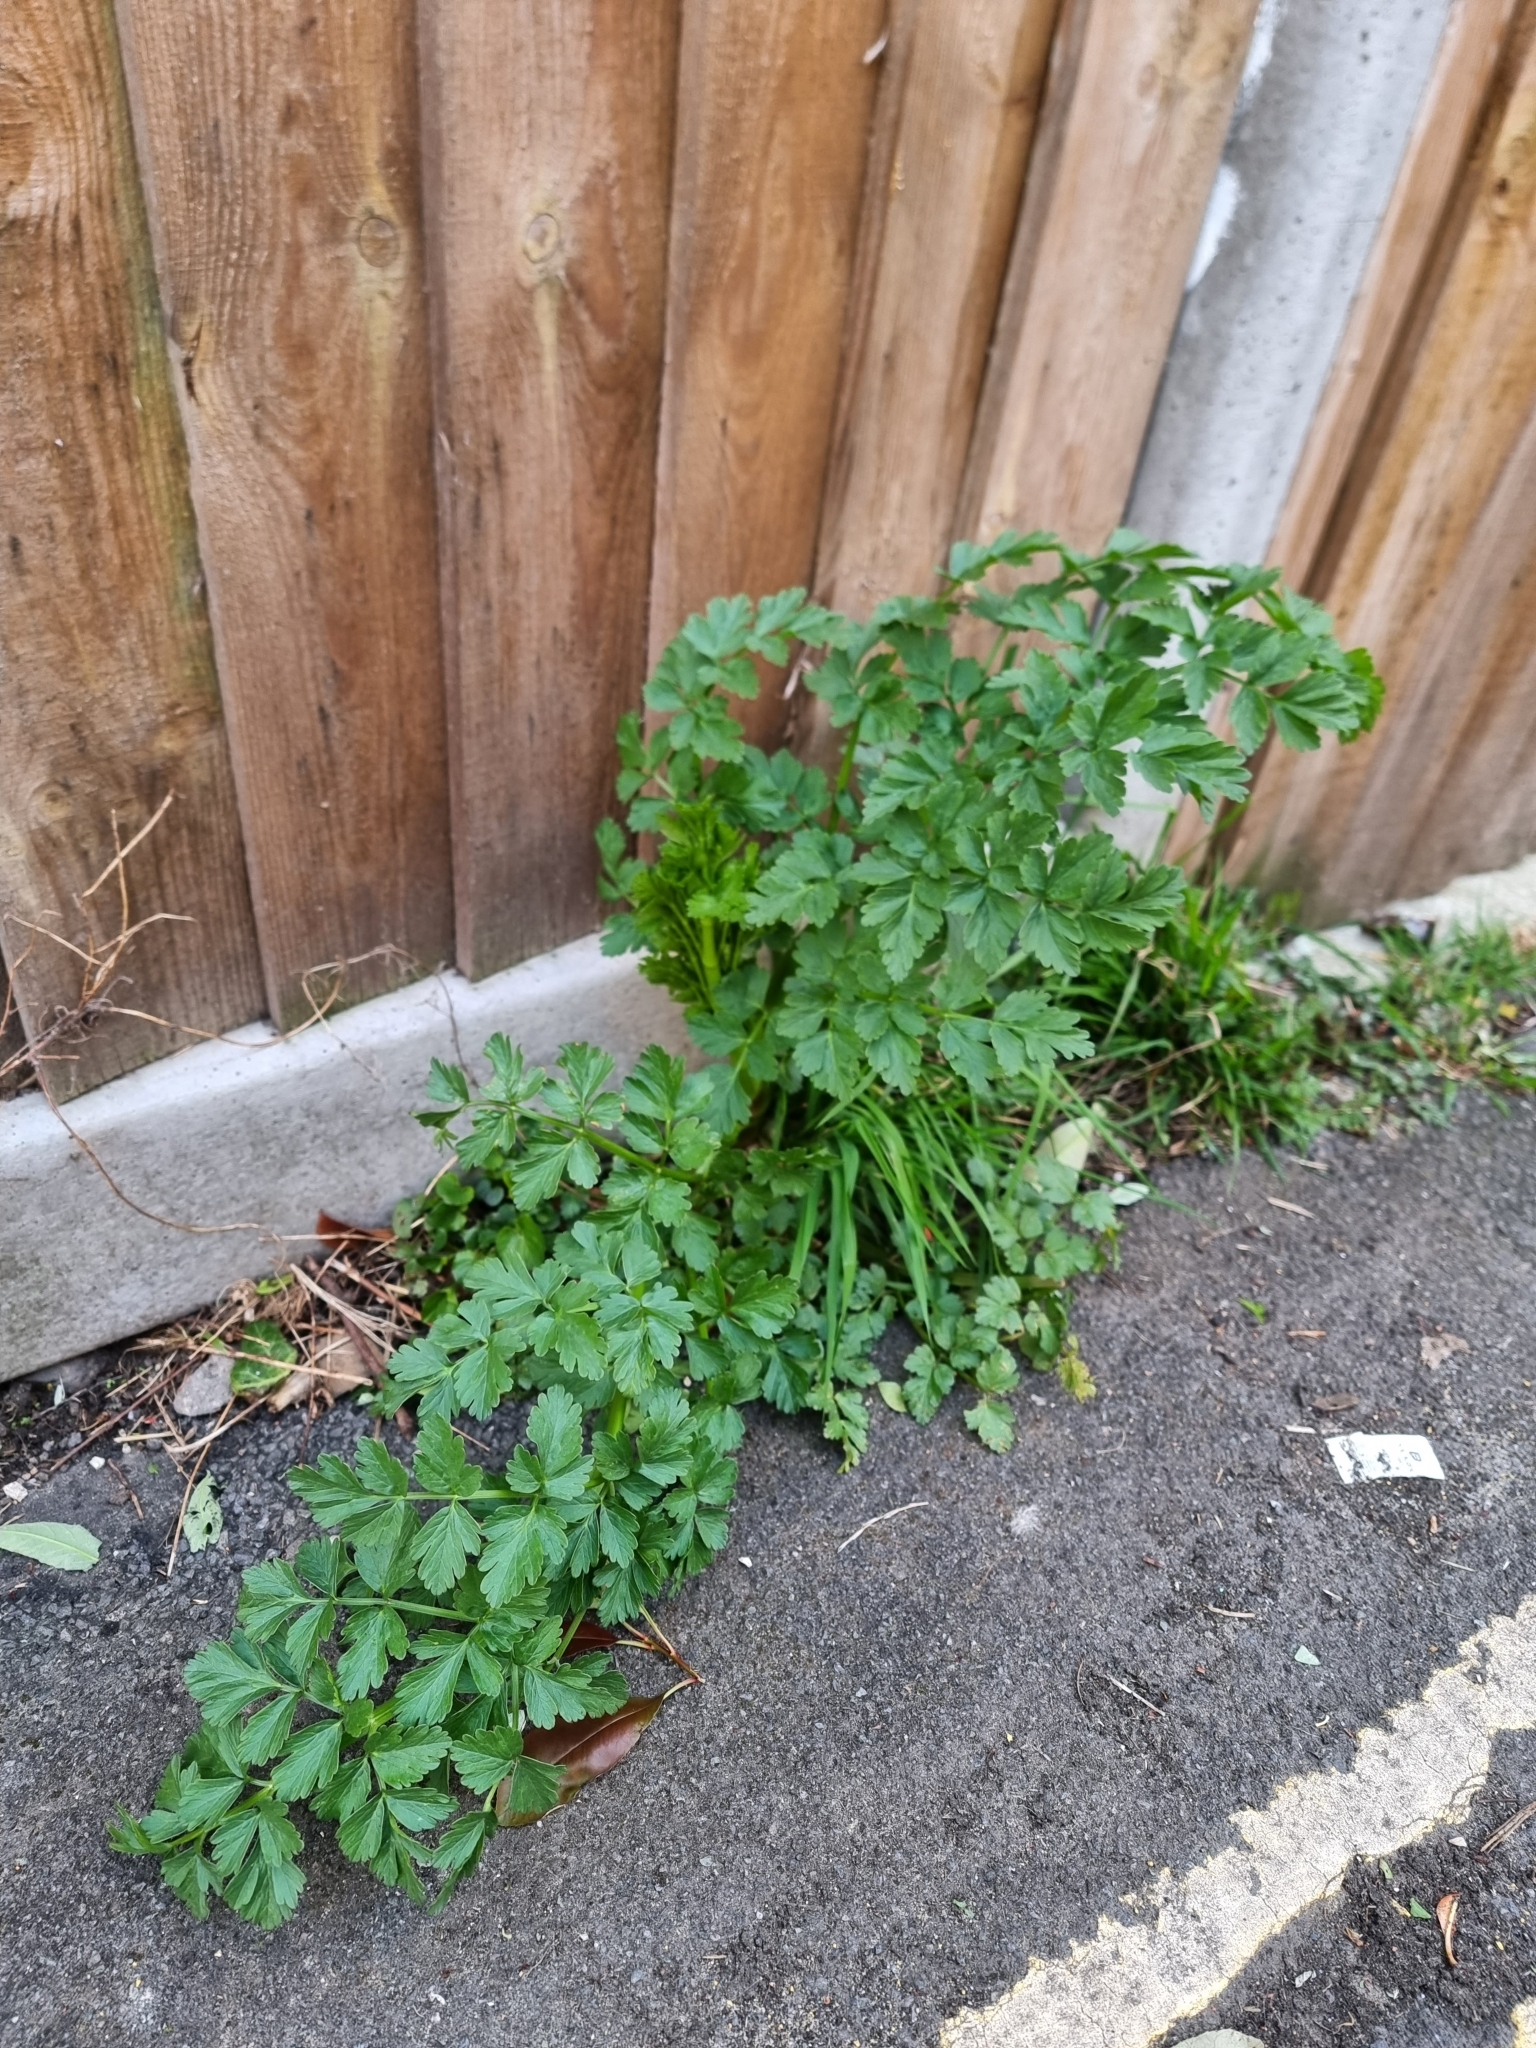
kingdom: Plantae
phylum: Tracheophyta
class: Magnoliopsida
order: Apiales
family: Apiaceae
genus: Oenanthe
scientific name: Oenanthe crocata
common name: Hemlock water-dropwort
